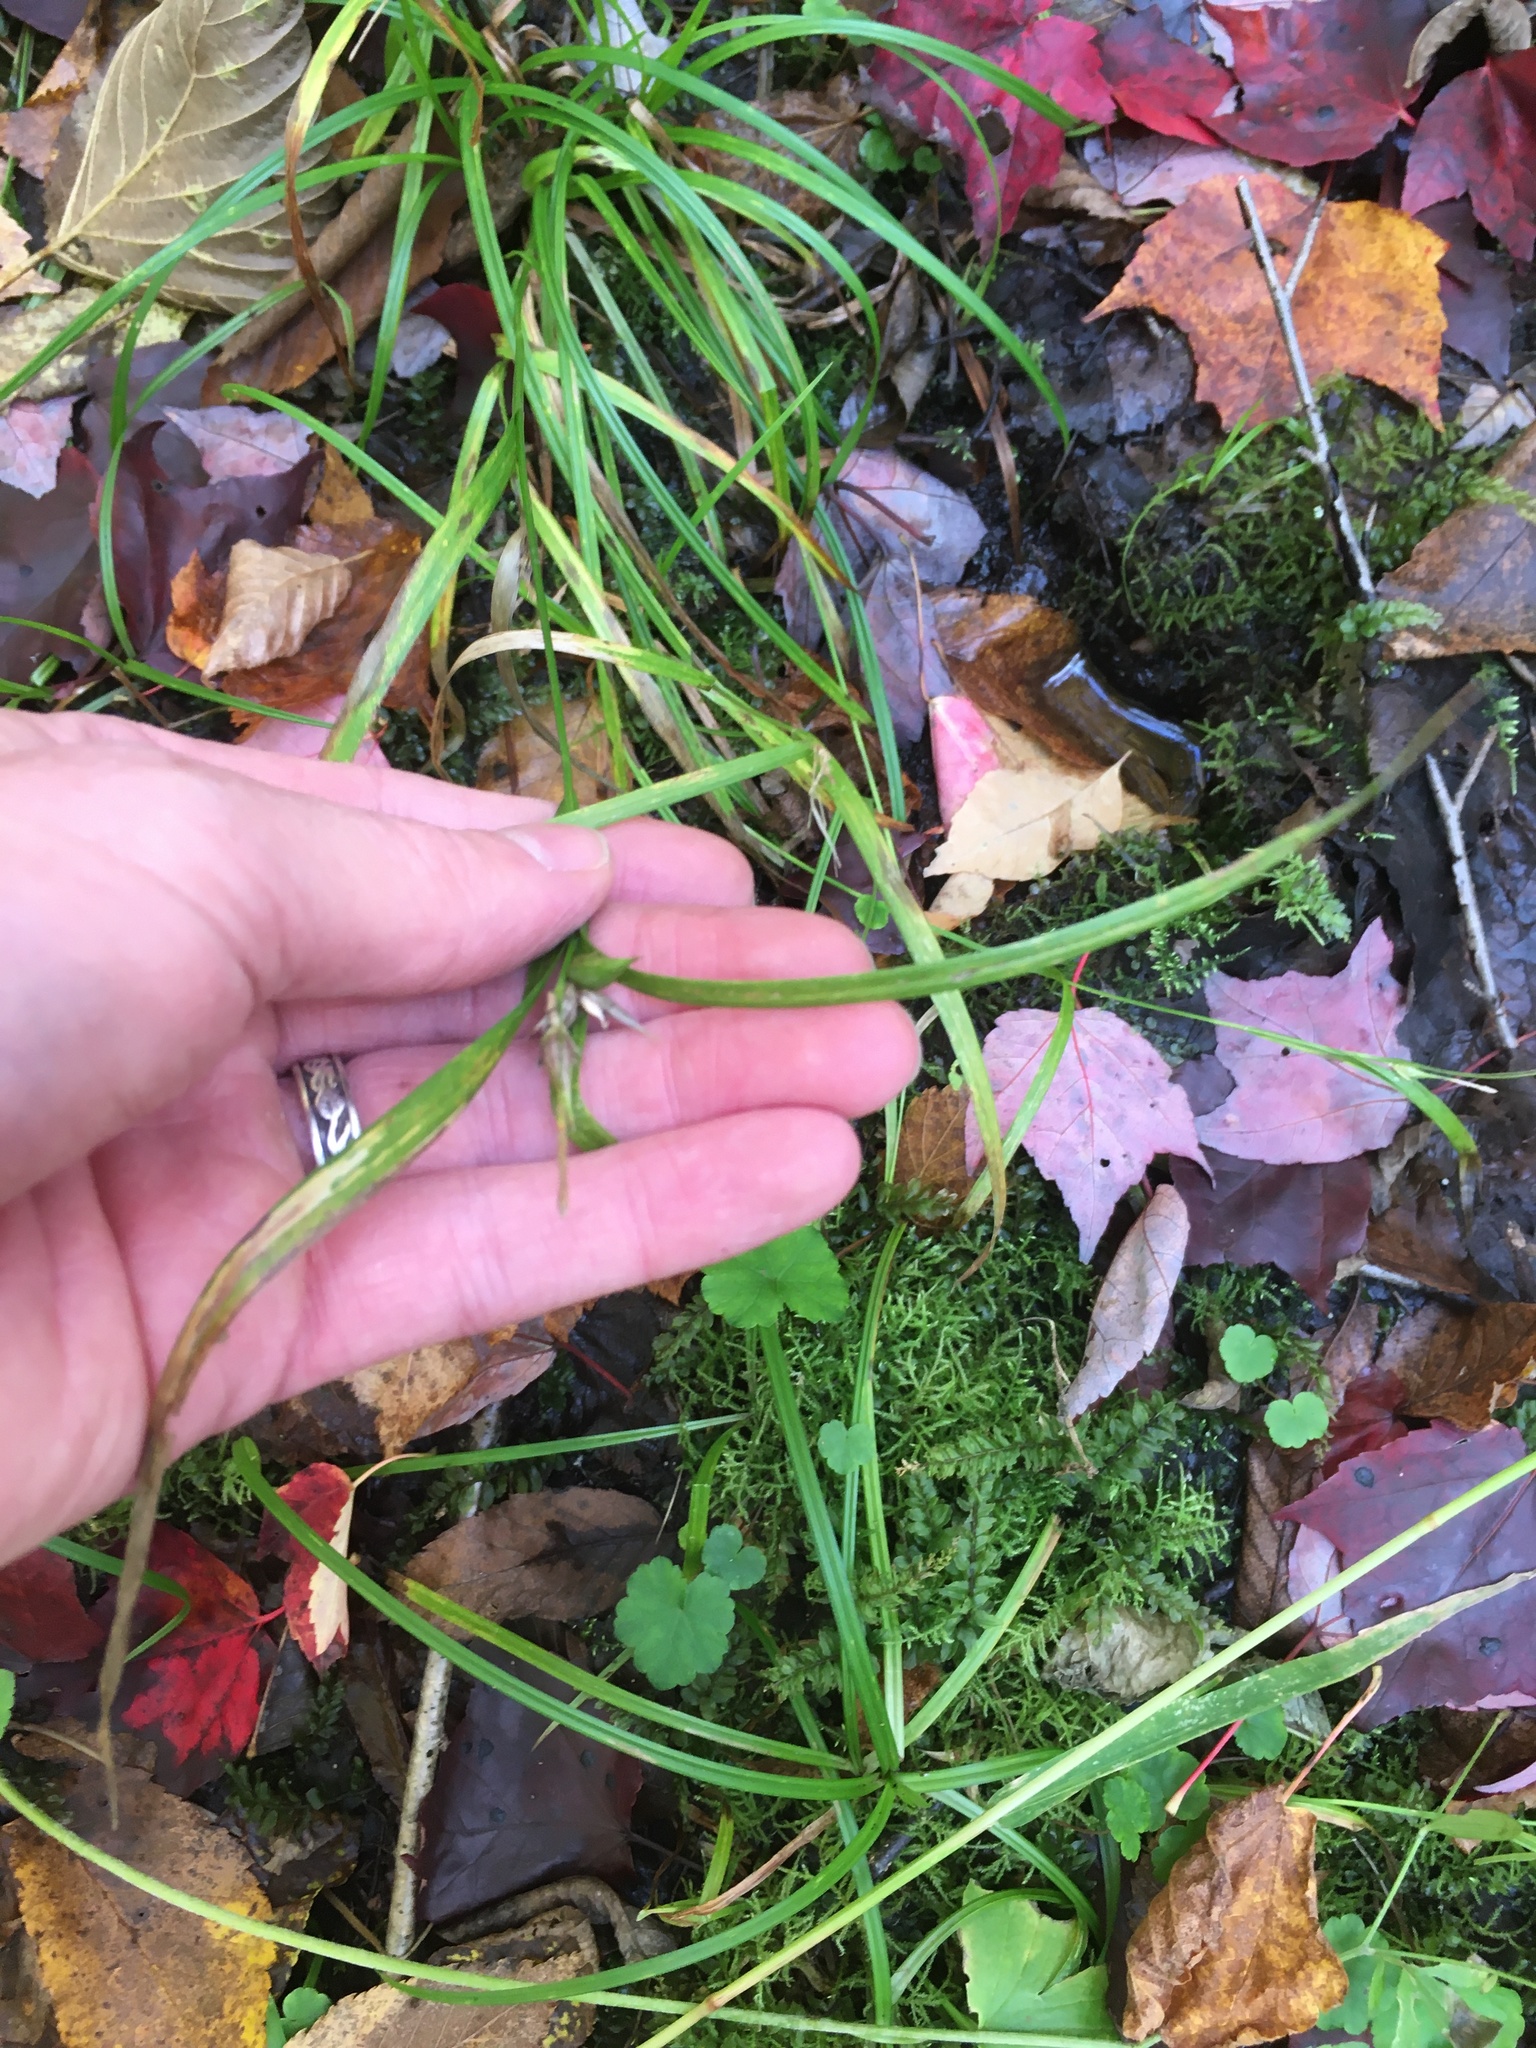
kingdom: Plantae
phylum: Tracheophyta
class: Liliopsida
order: Poales
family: Cyperaceae
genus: Carex
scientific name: Carex intumescens
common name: Greater bladder sedge
